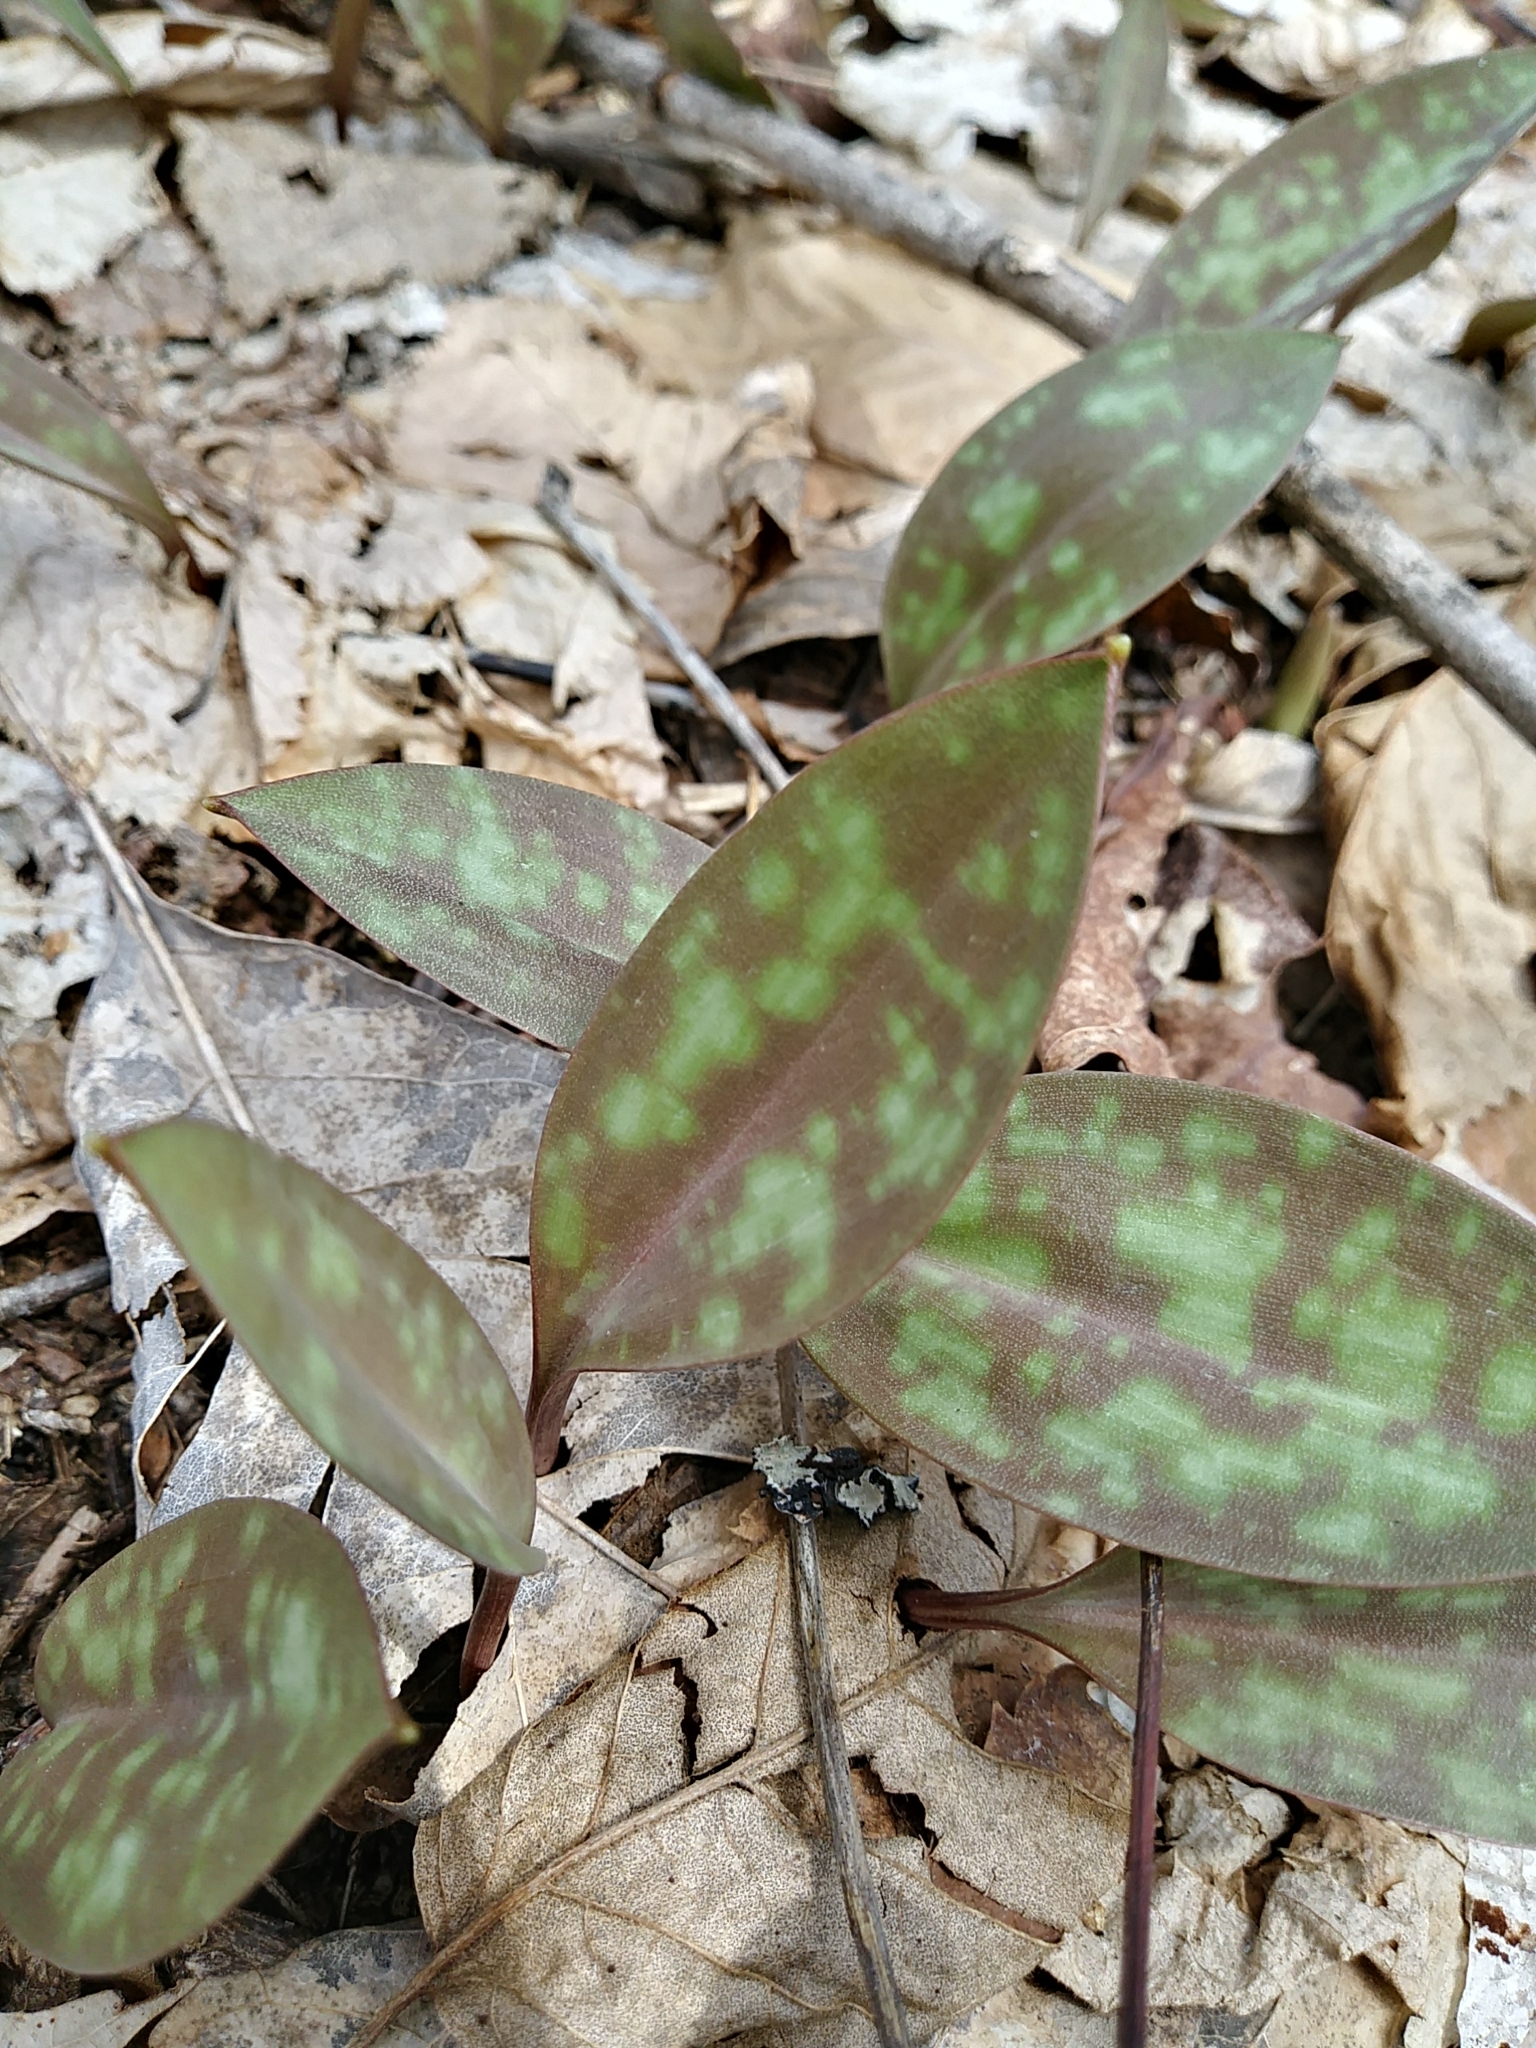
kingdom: Plantae
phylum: Tracheophyta
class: Liliopsida
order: Liliales
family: Liliaceae
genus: Erythronium
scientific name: Erythronium americanum
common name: Yellow adder's-tongue
